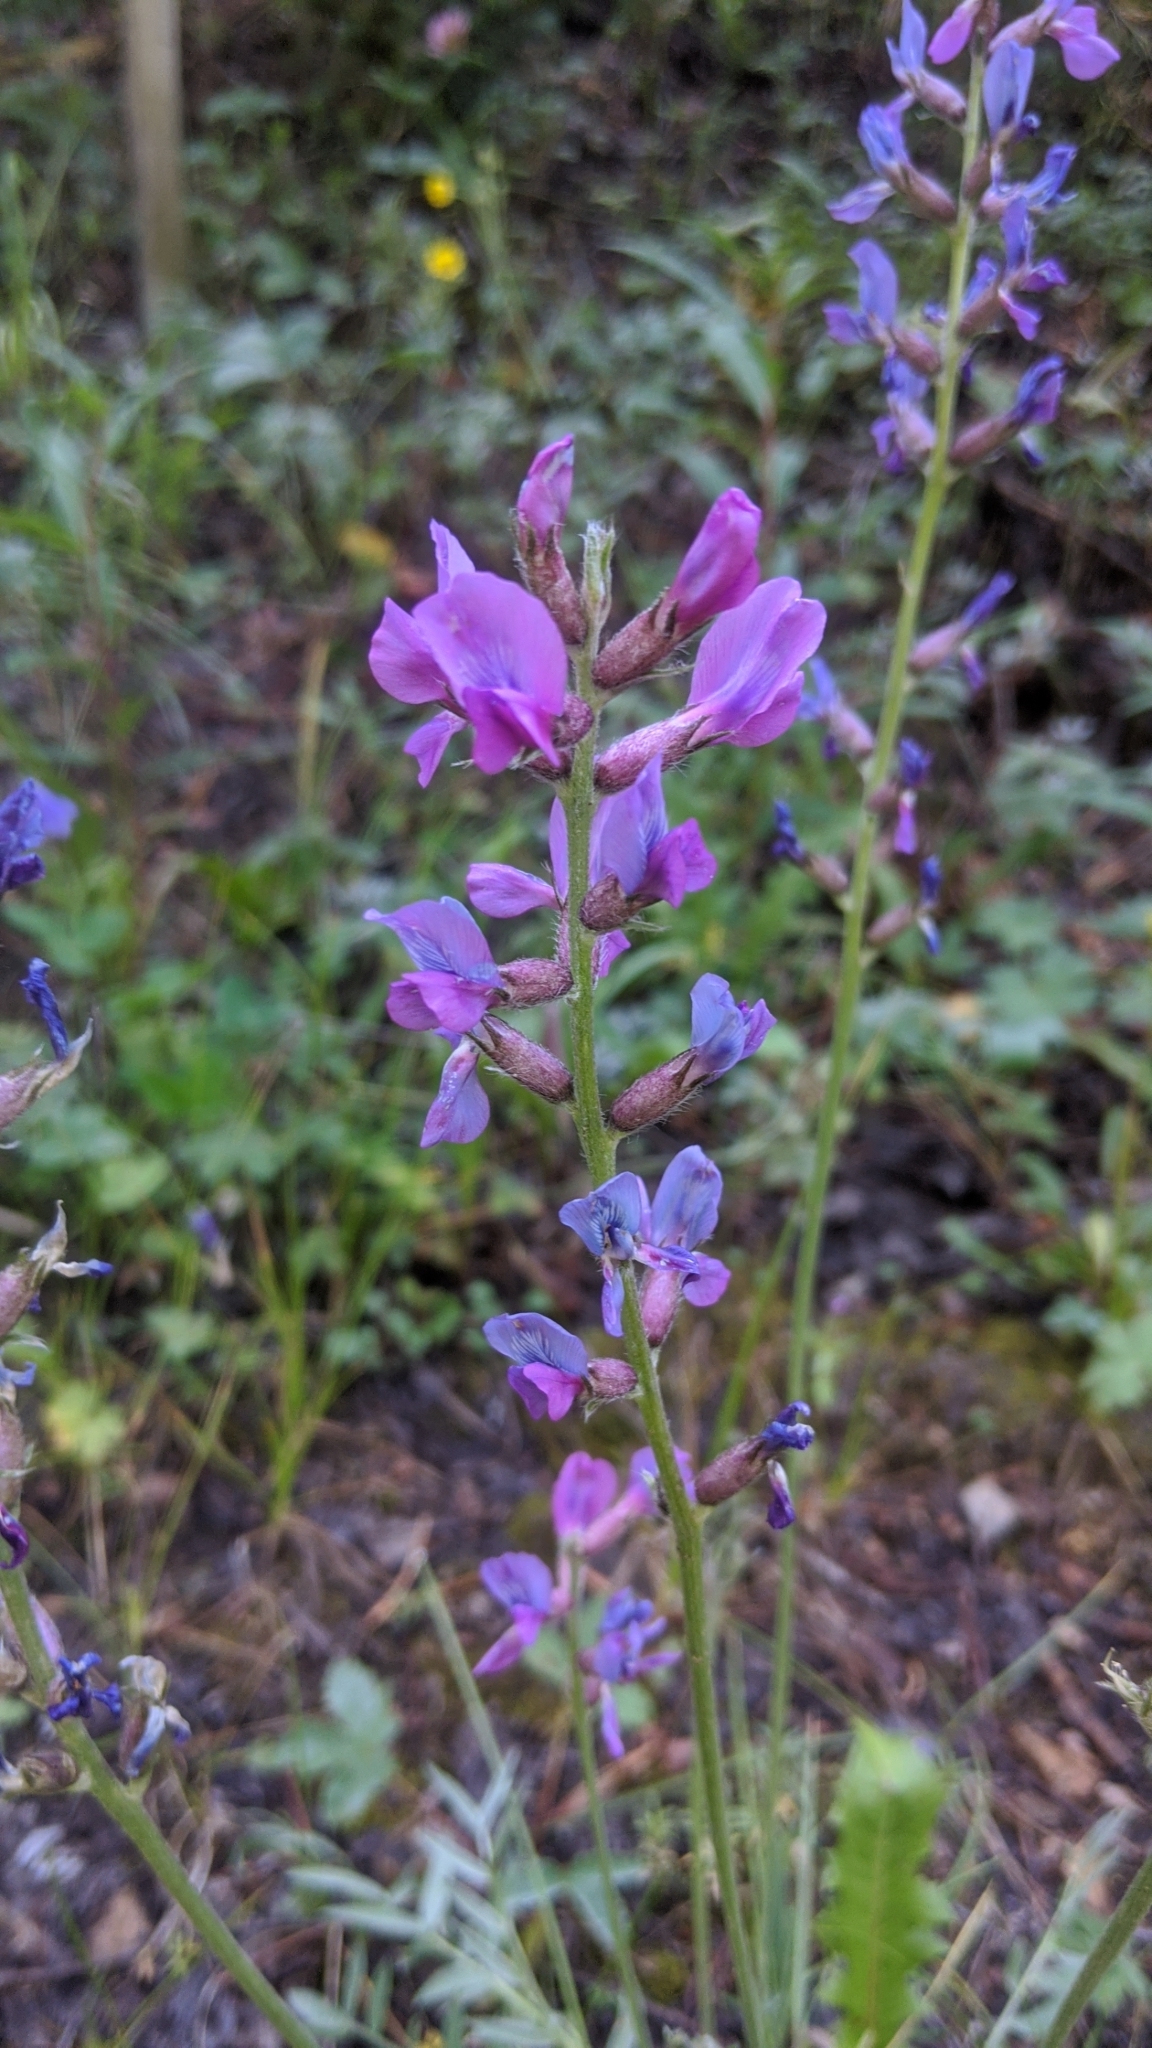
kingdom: Plantae
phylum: Tracheophyta
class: Magnoliopsida
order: Fabales
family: Fabaceae
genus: Oxytropis
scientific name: Oxytropis lambertii
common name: Purple locoweed
